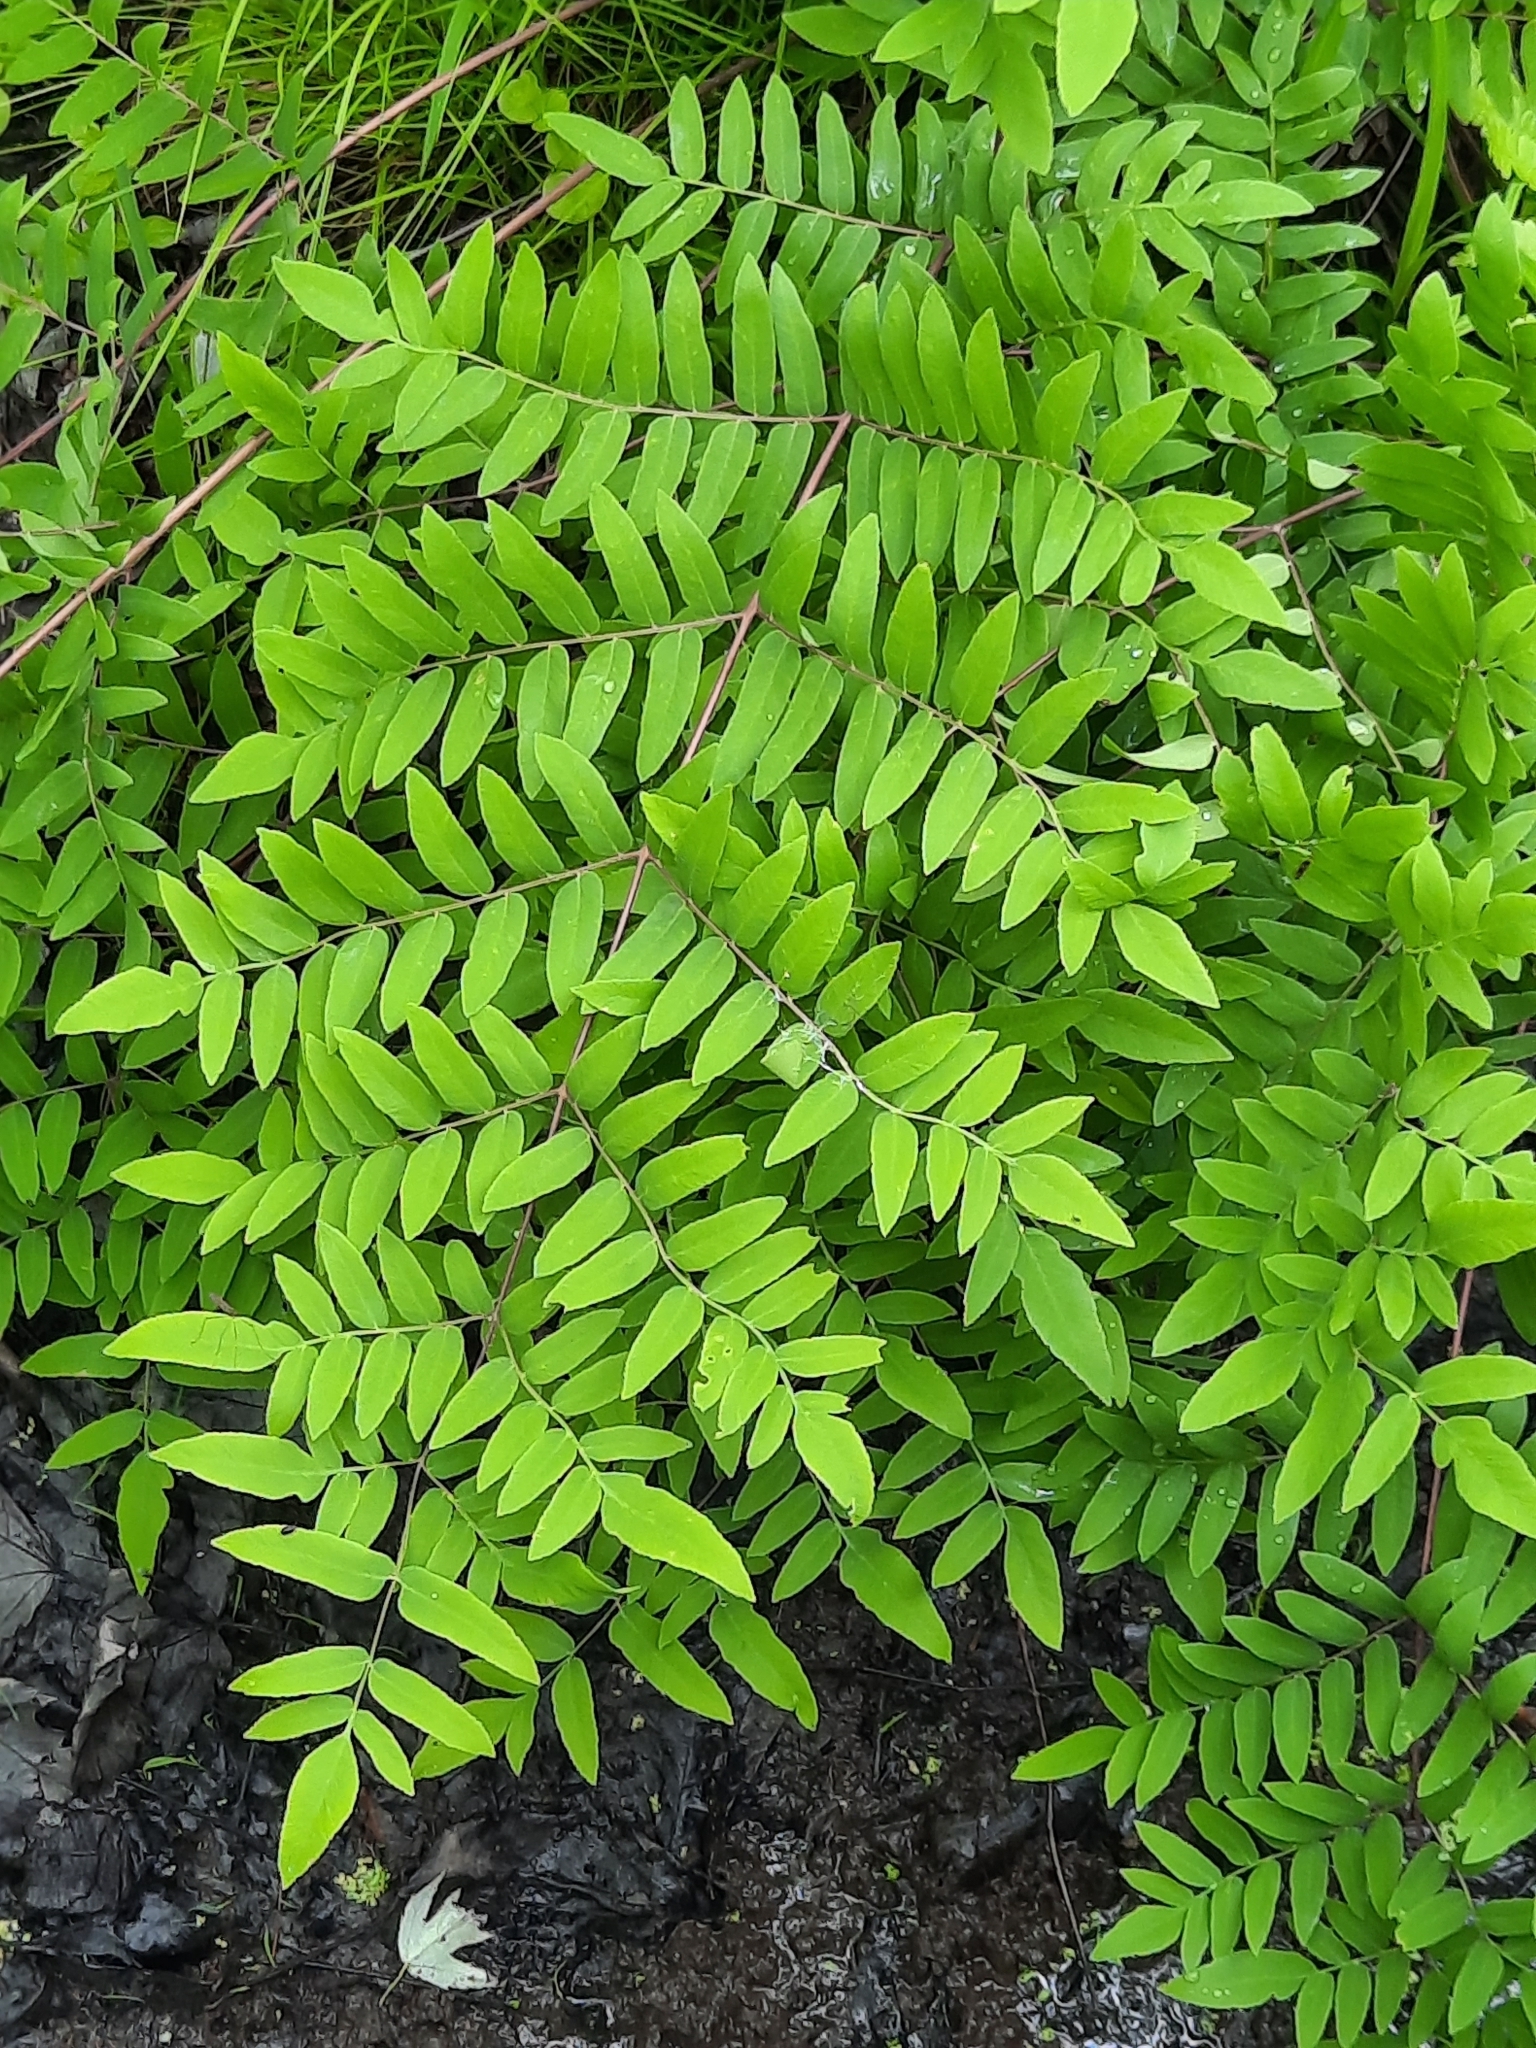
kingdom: Plantae
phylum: Tracheophyta
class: Polypodiopsida
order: Osmundales
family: Osmundaceae
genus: Osmunda
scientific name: Osmunda spectabilis
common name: American royal fern
